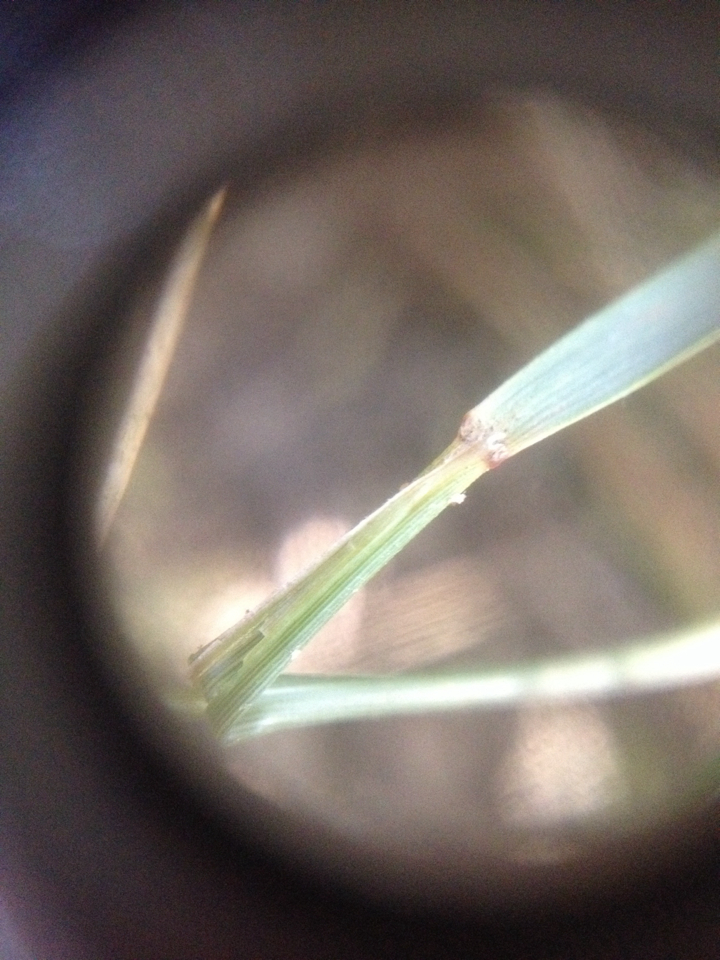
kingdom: Plantae
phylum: Tracheophyta
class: Liliopsida
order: Poales
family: Poaceae
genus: Anemanthele
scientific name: Anemanthele lessoniana
